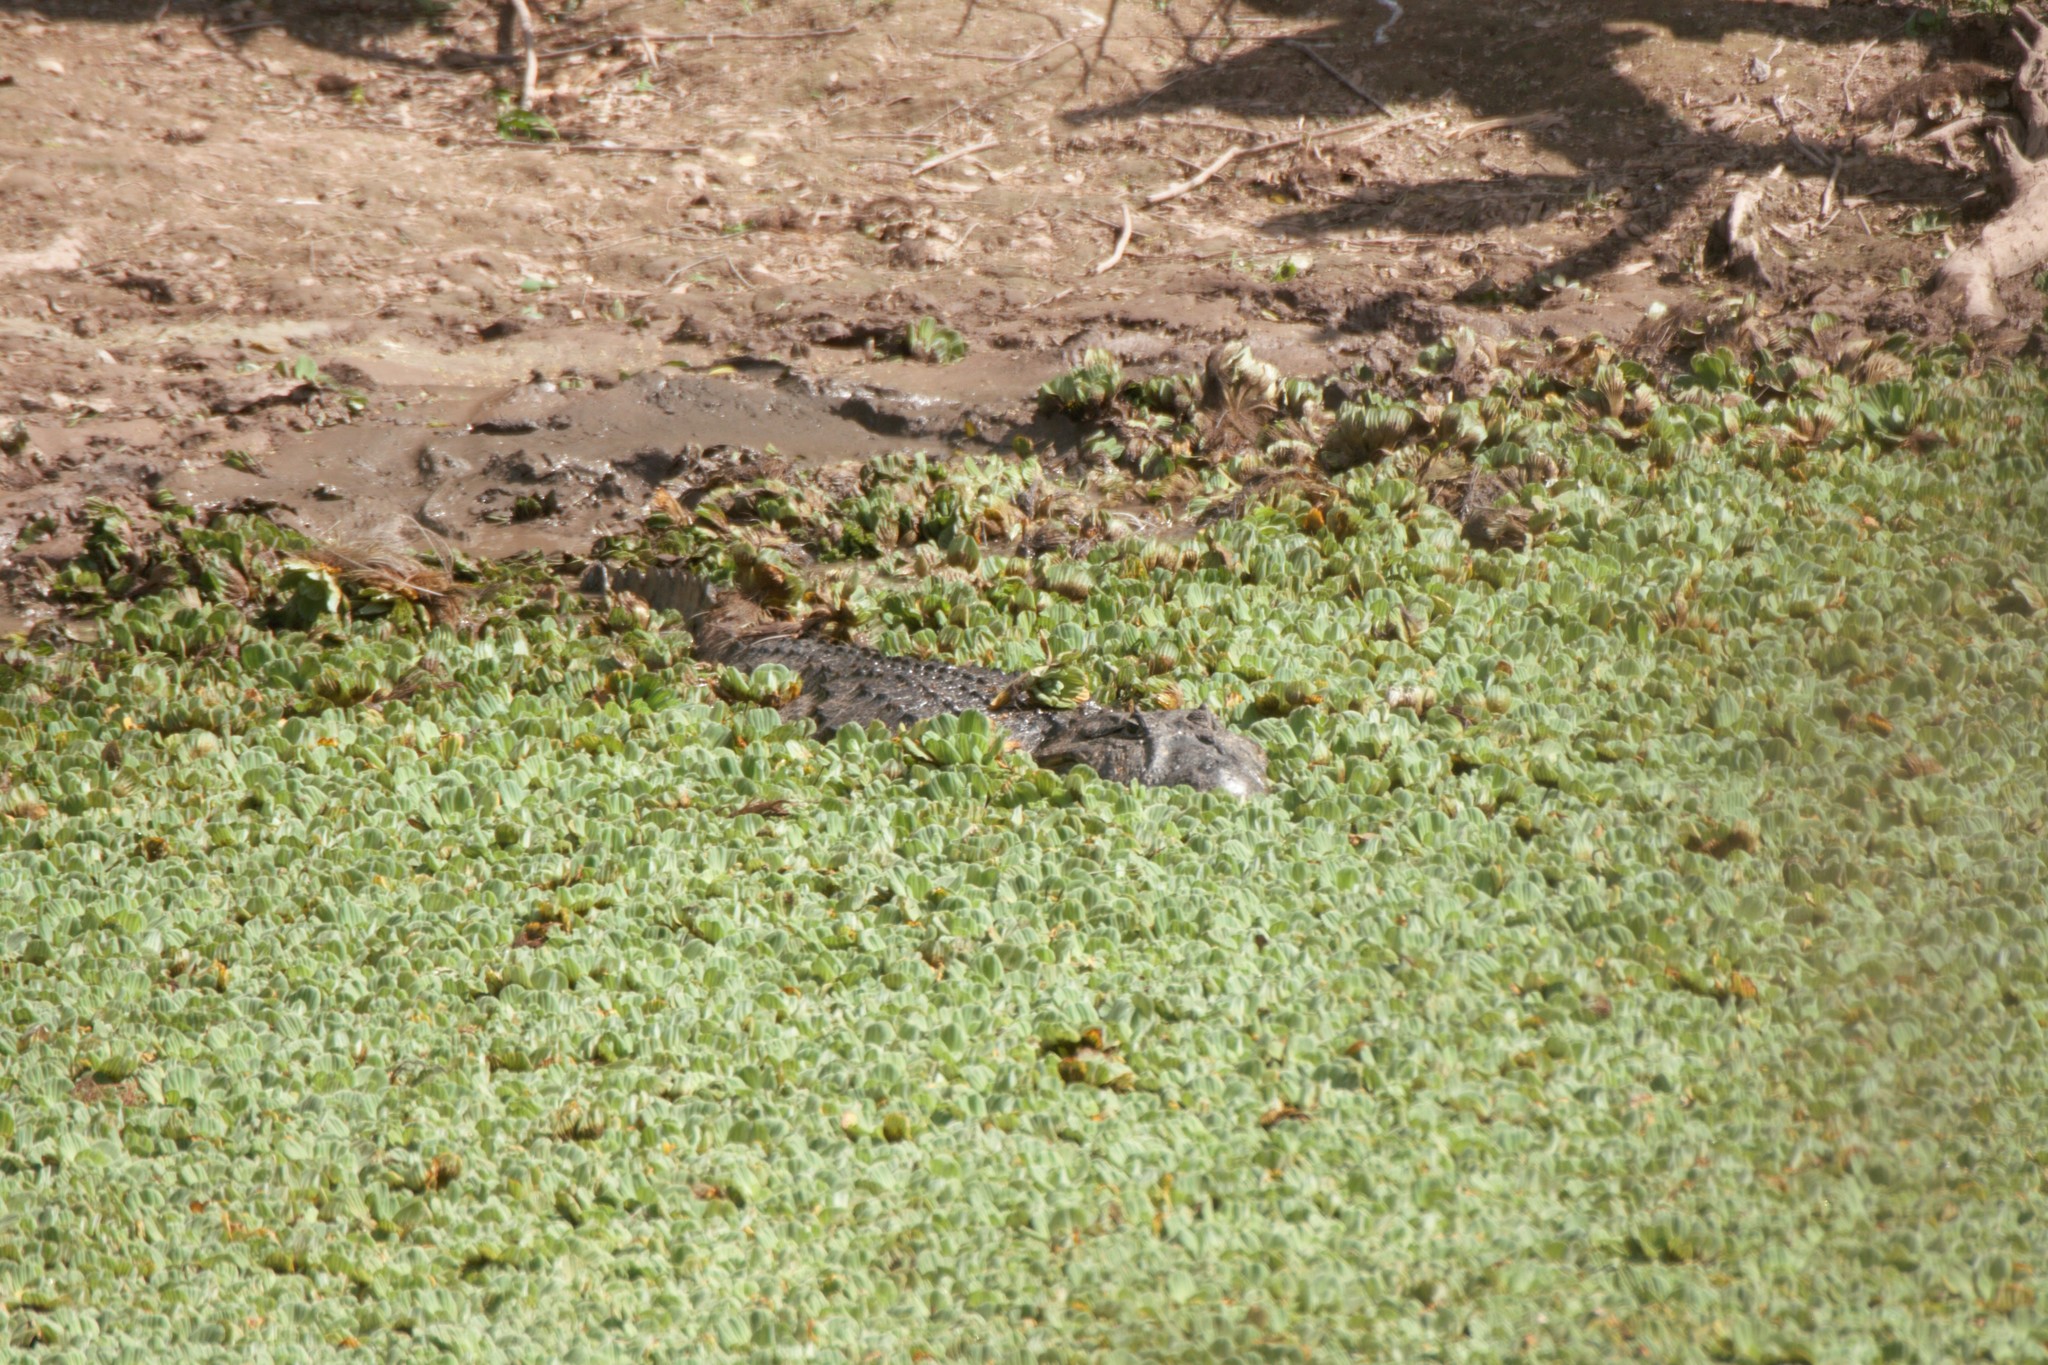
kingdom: Animalia
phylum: Chordata
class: Crocodylia
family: Alligatoridae
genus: Caiman
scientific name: Caiman latirostris
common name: Broad-snouted caiman
